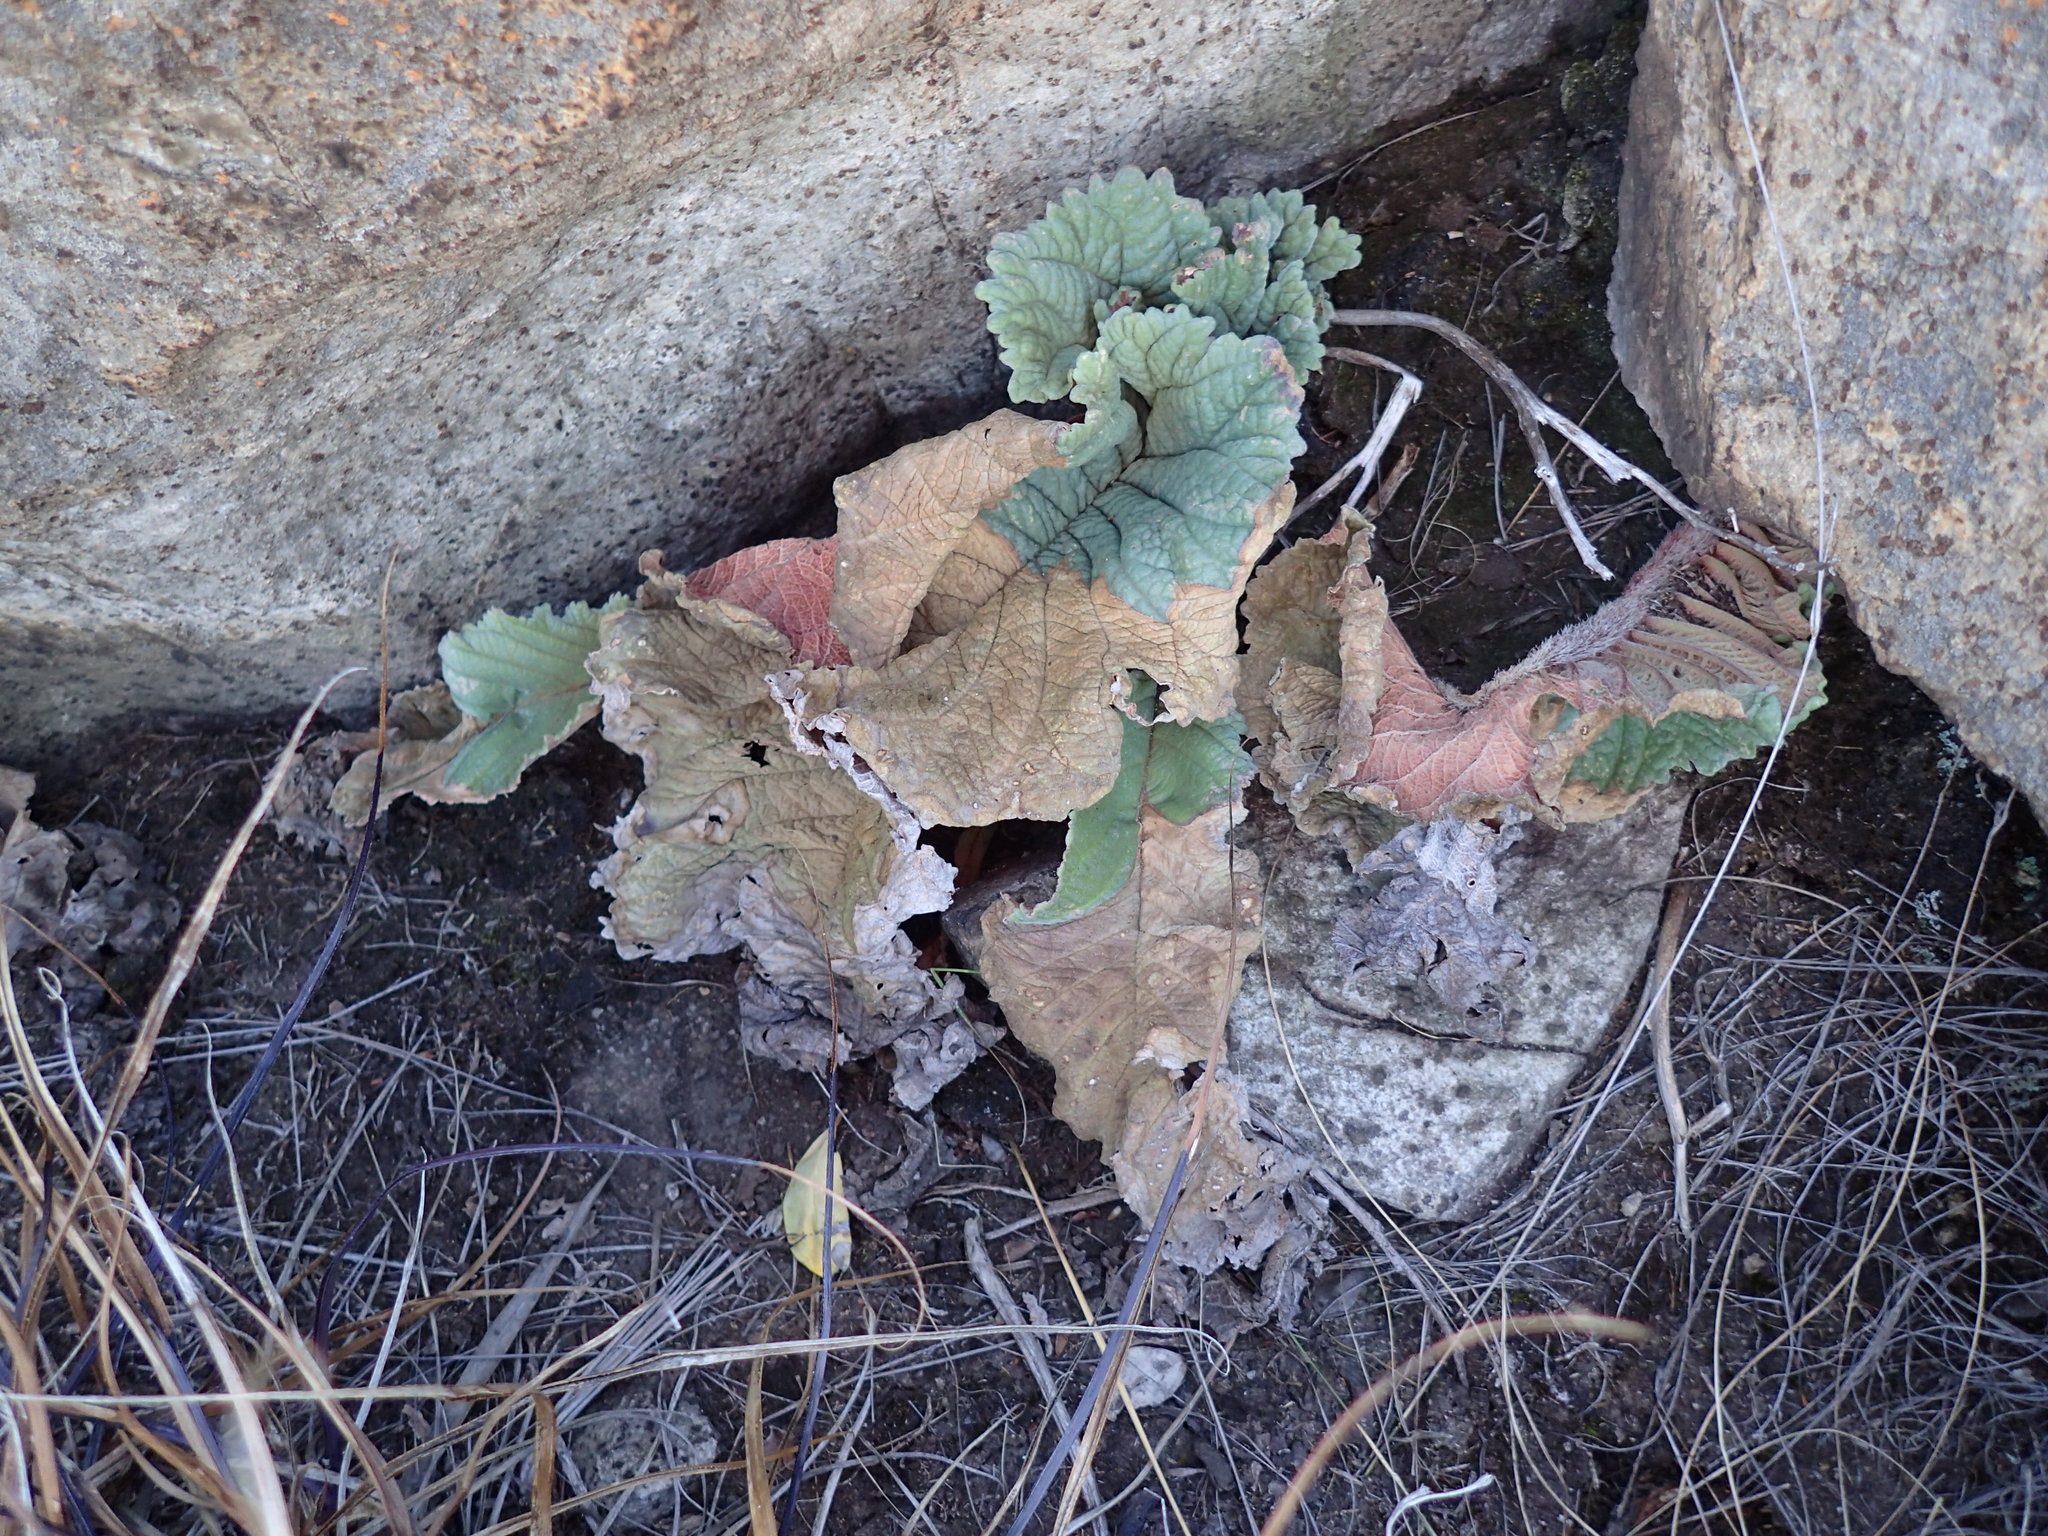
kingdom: Plantae
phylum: Tracheophyta
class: Magnoliopsida
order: Lamiales
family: Gesneriaceae
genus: Streptocarpus
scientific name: Streptocarpus dunnii
